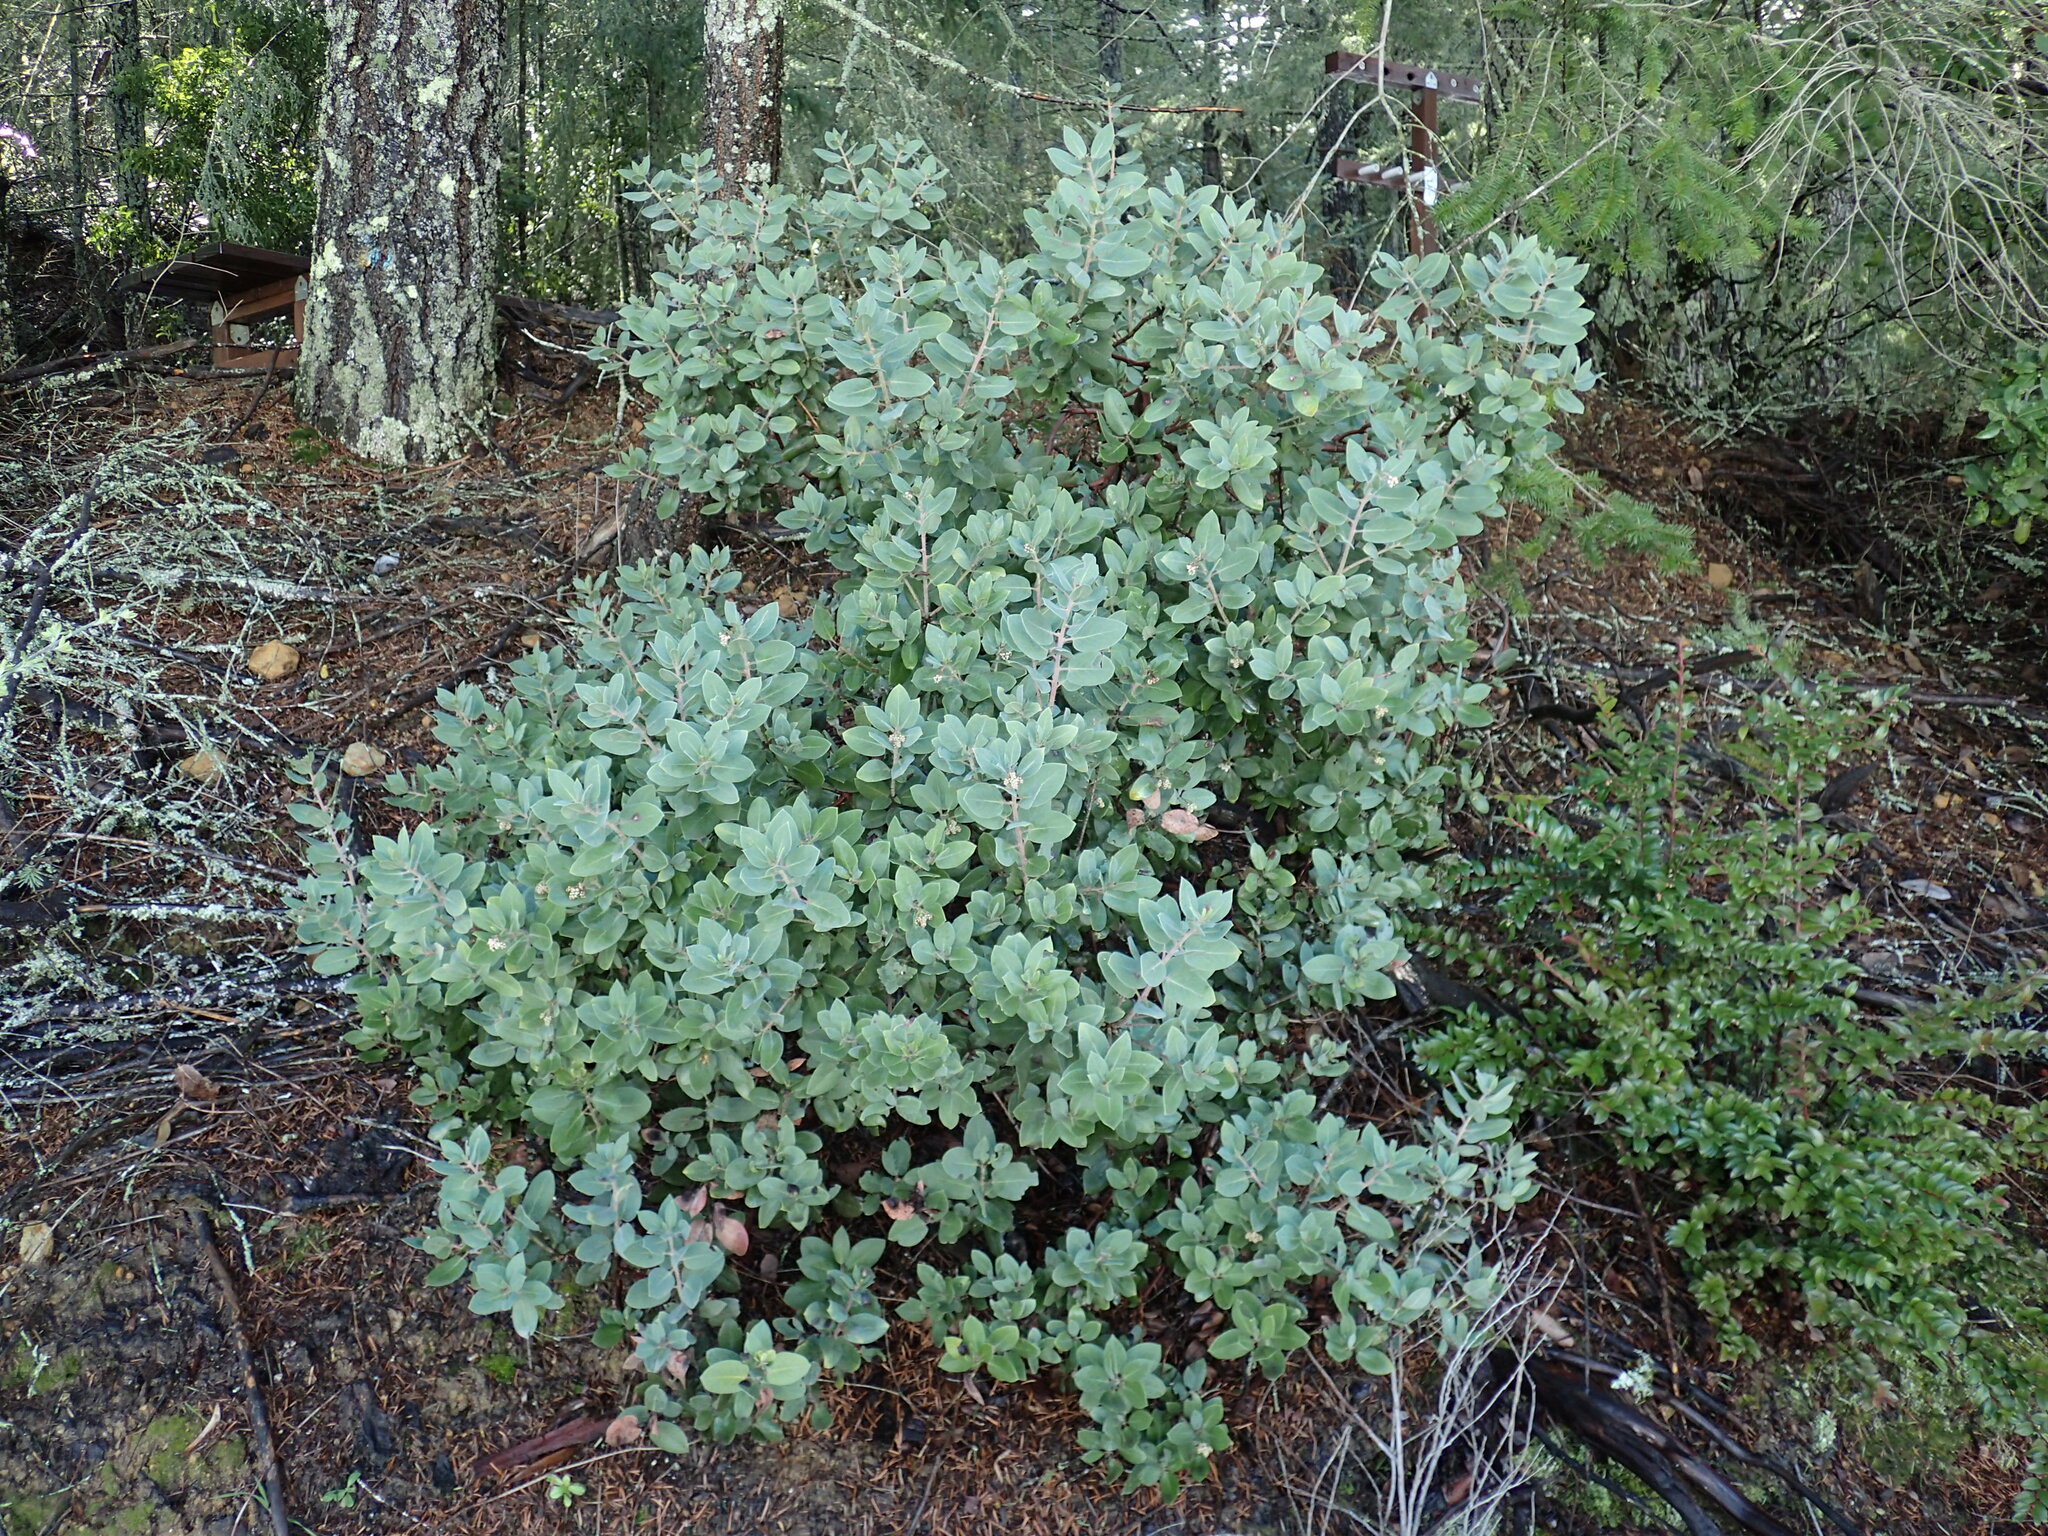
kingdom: Plantae
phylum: Tracheophyta
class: Magnoliopsida
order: Ericales
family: Ericaceae
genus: Arctostaphylos
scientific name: Arctostaphylos crustacea
